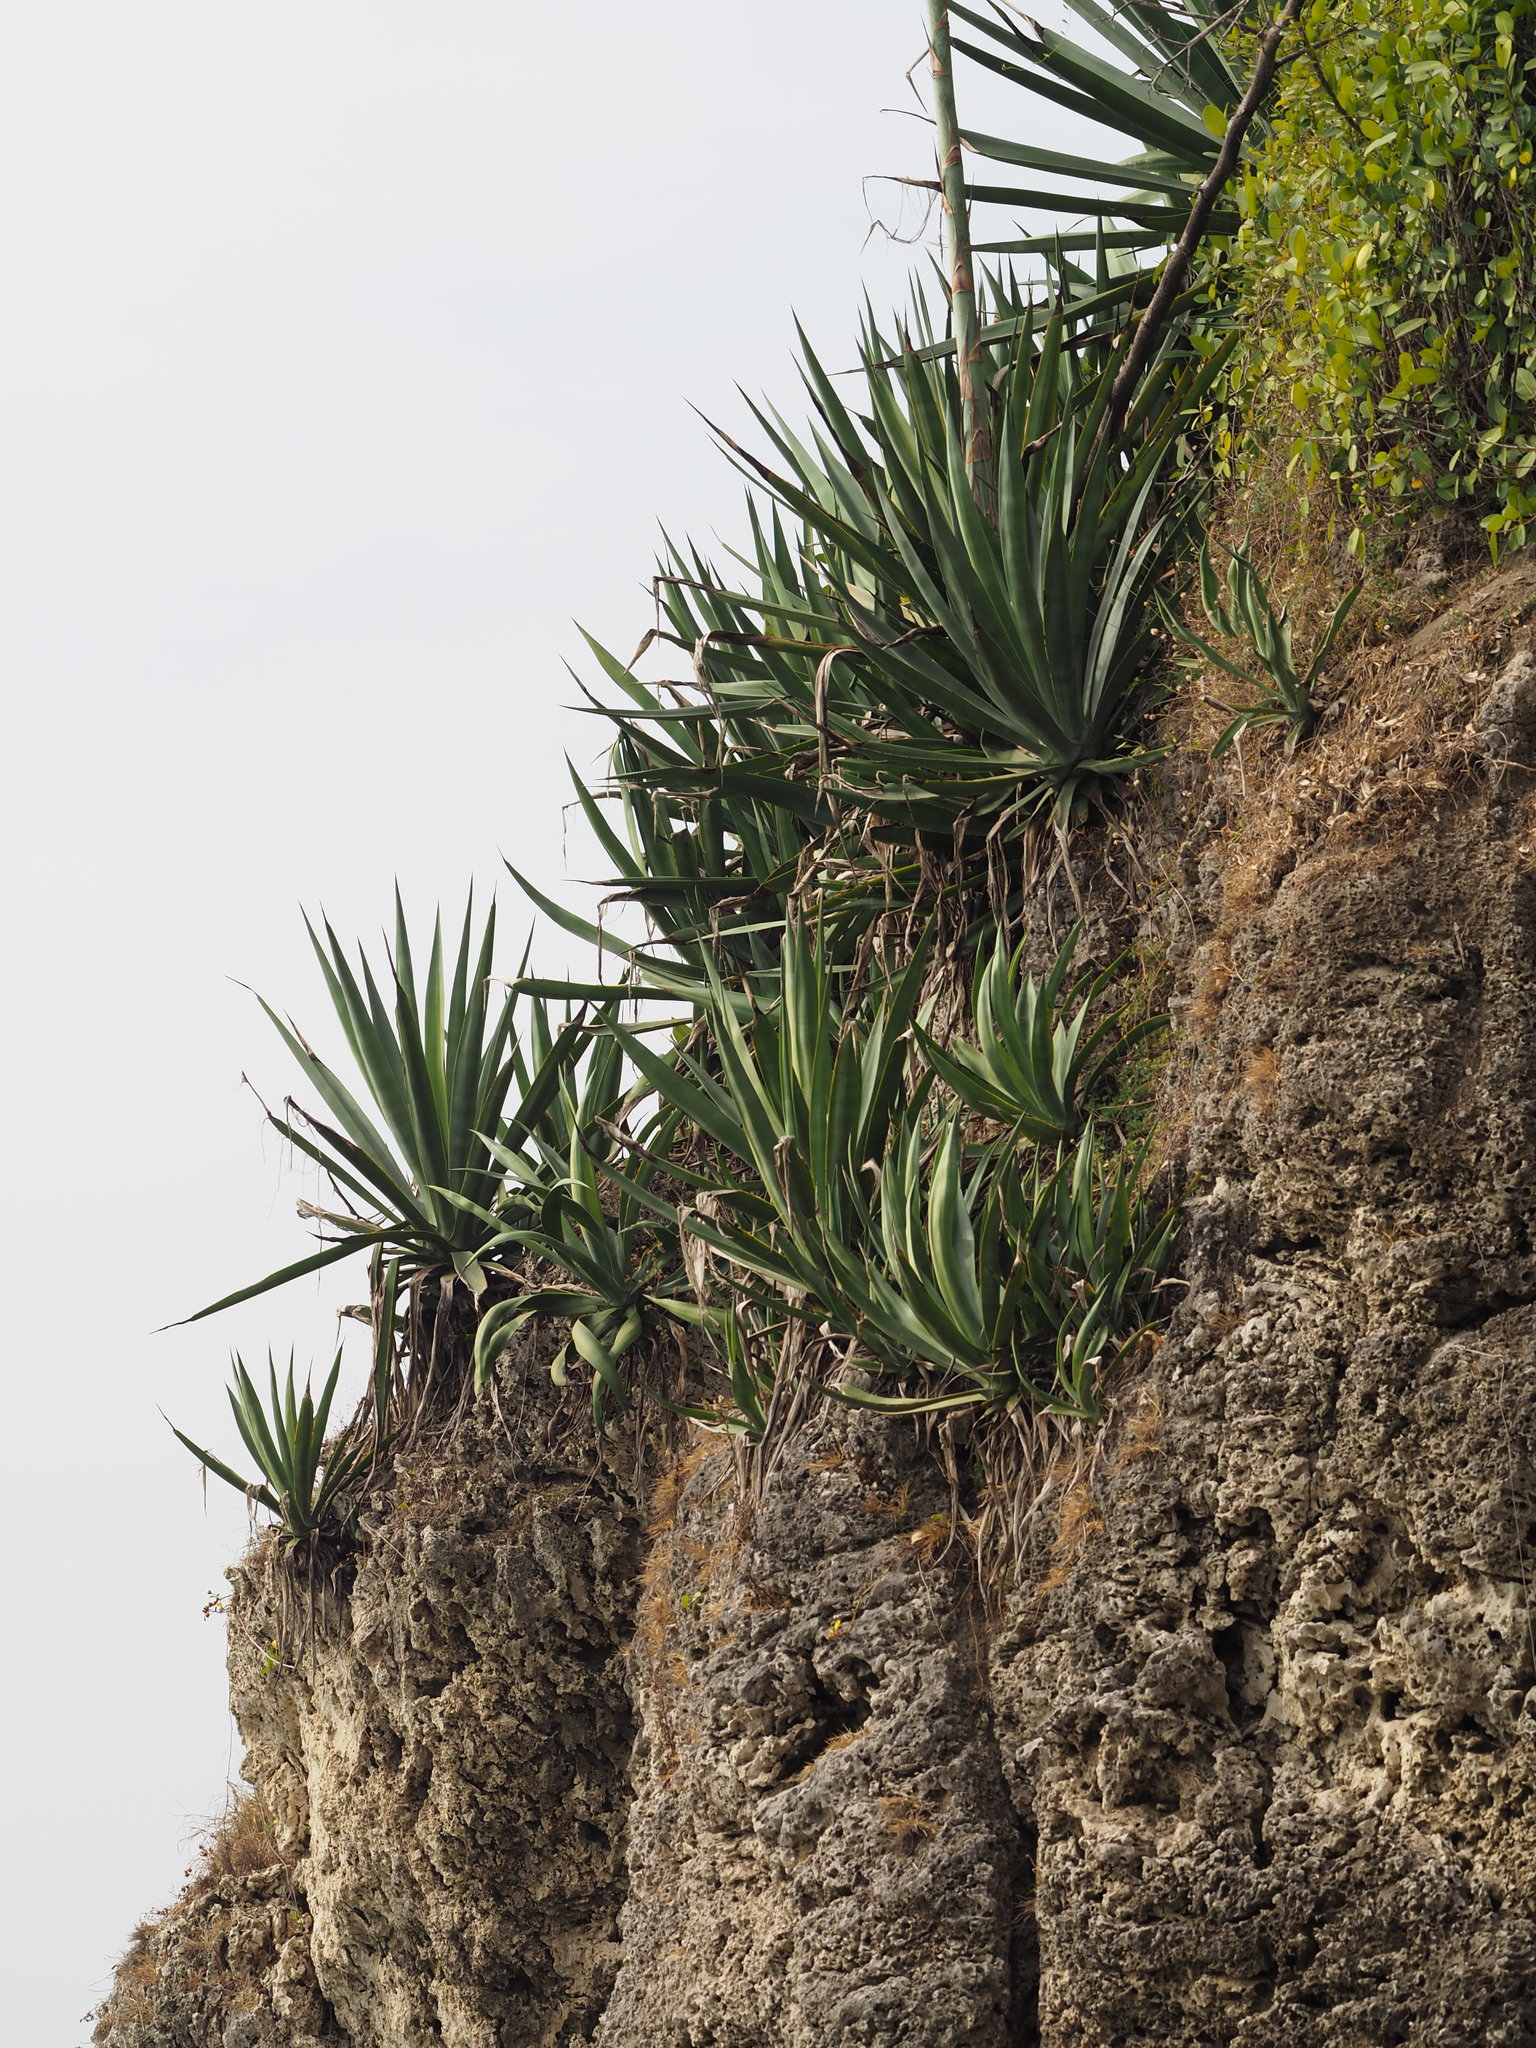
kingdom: Plantae
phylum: Tracheophyta
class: Liliopsida
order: Asparagales
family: Asparagaceae
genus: Agave
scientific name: Agave sisalana
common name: Sisal hemp
